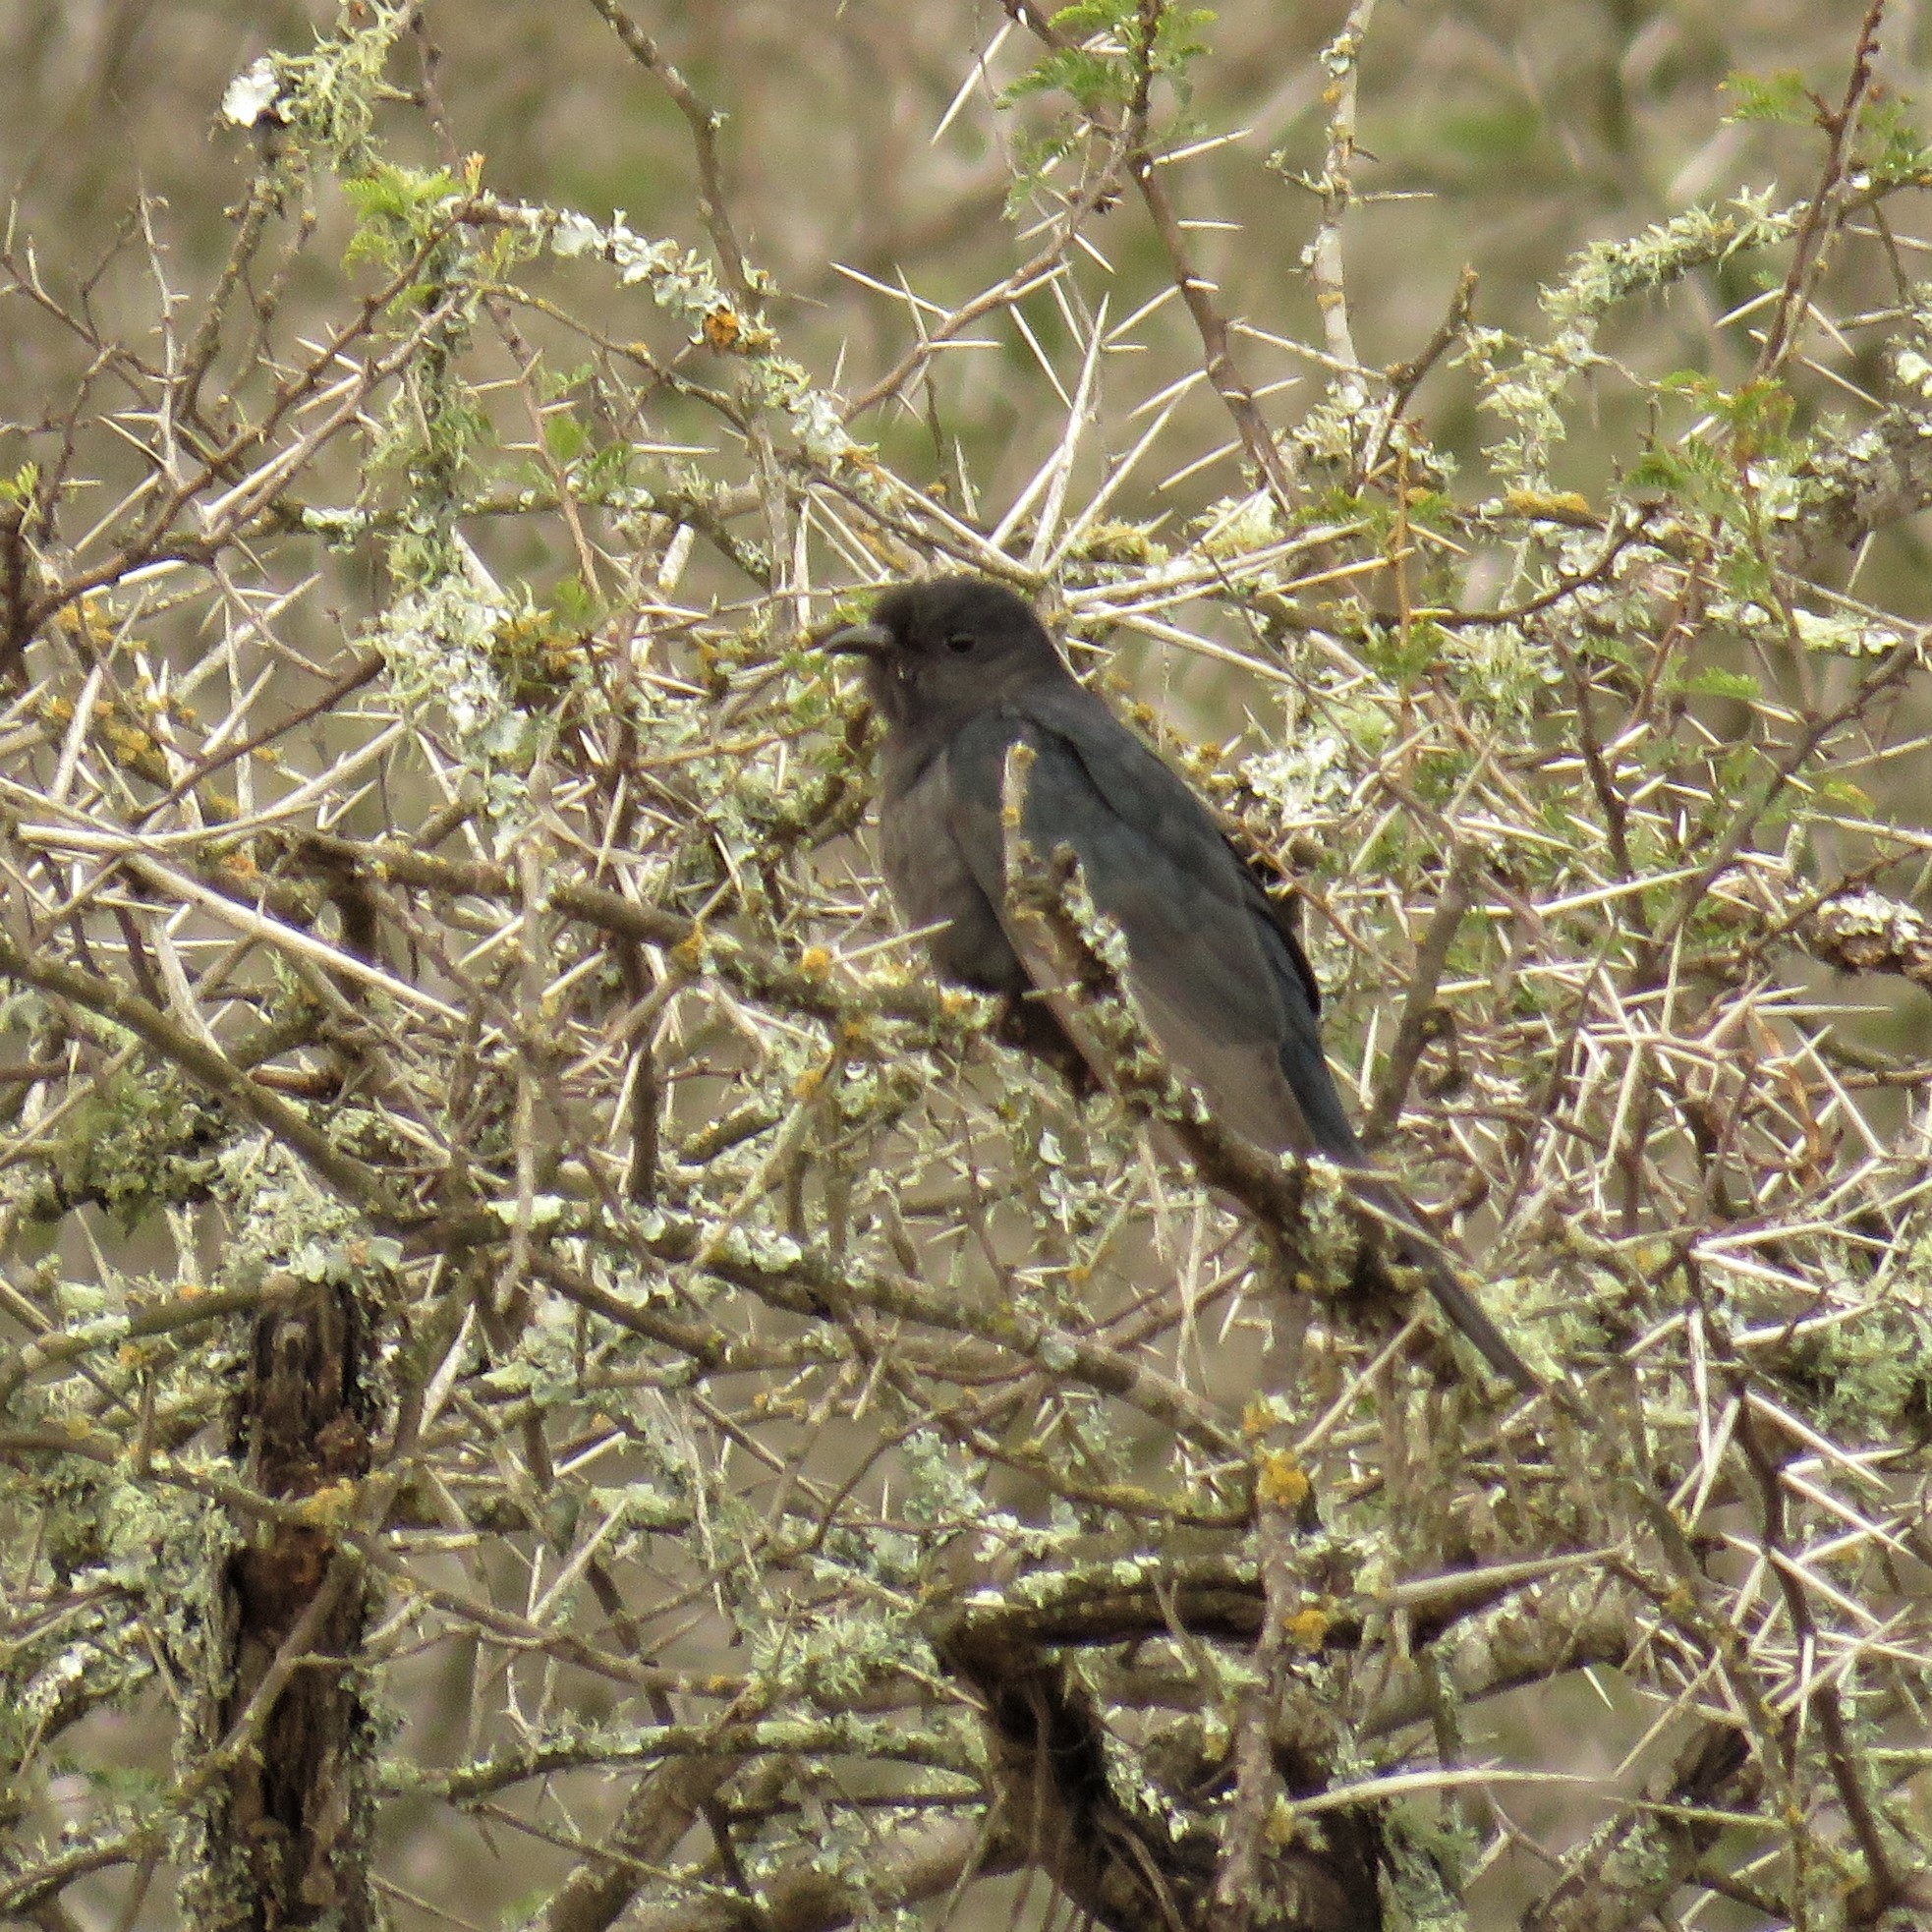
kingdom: Animalia
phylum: Chordata
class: Aves
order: Cuculiformes
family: Cuculidae
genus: Cuculus
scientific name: Cuculus clamosus
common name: Black cuckoo
